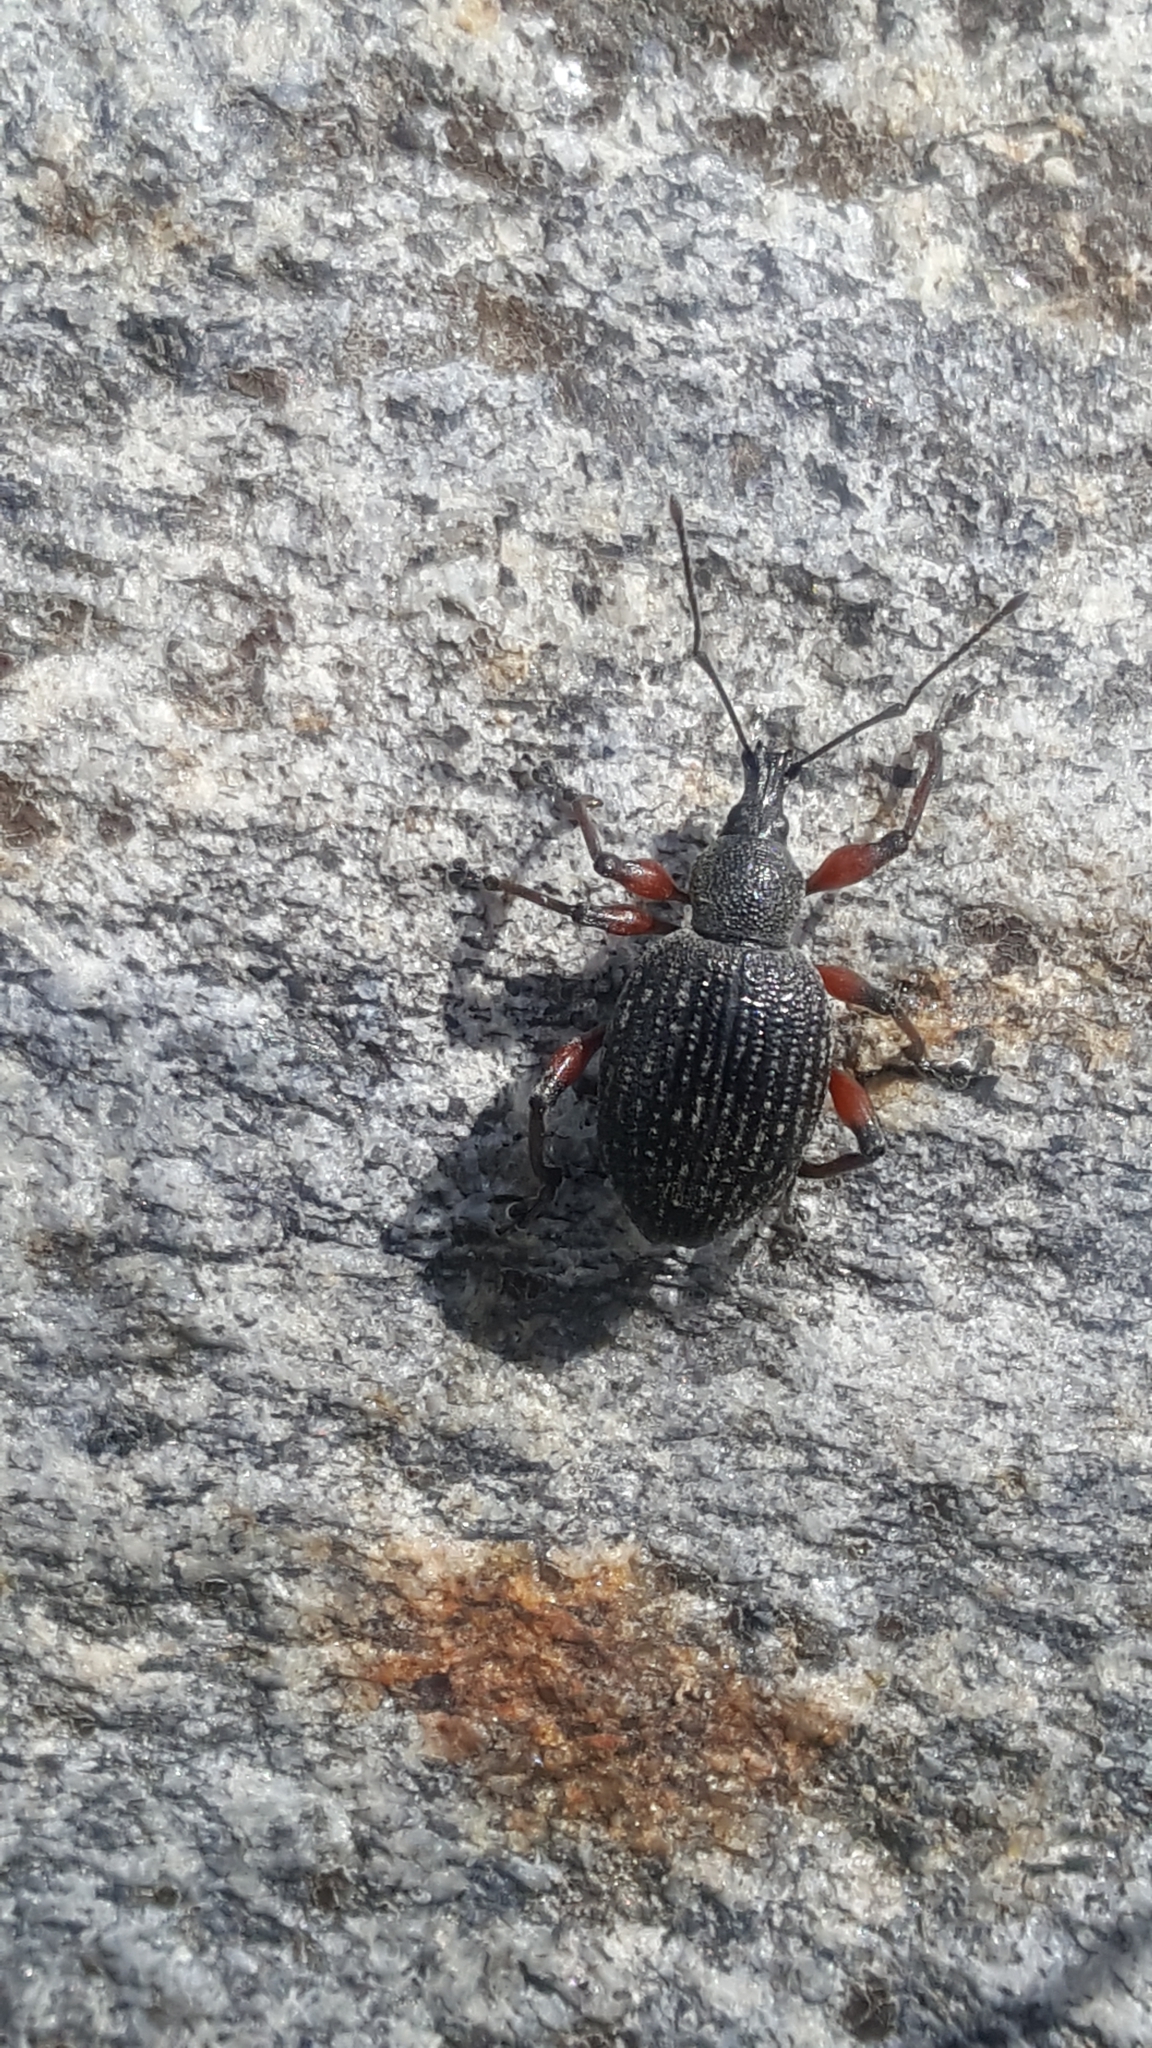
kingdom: Animalia
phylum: Arthropoda
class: Insecta
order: Coleoptera
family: Curculionidae
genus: Otiorhynchus
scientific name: Otiorhynchus sensitivus
